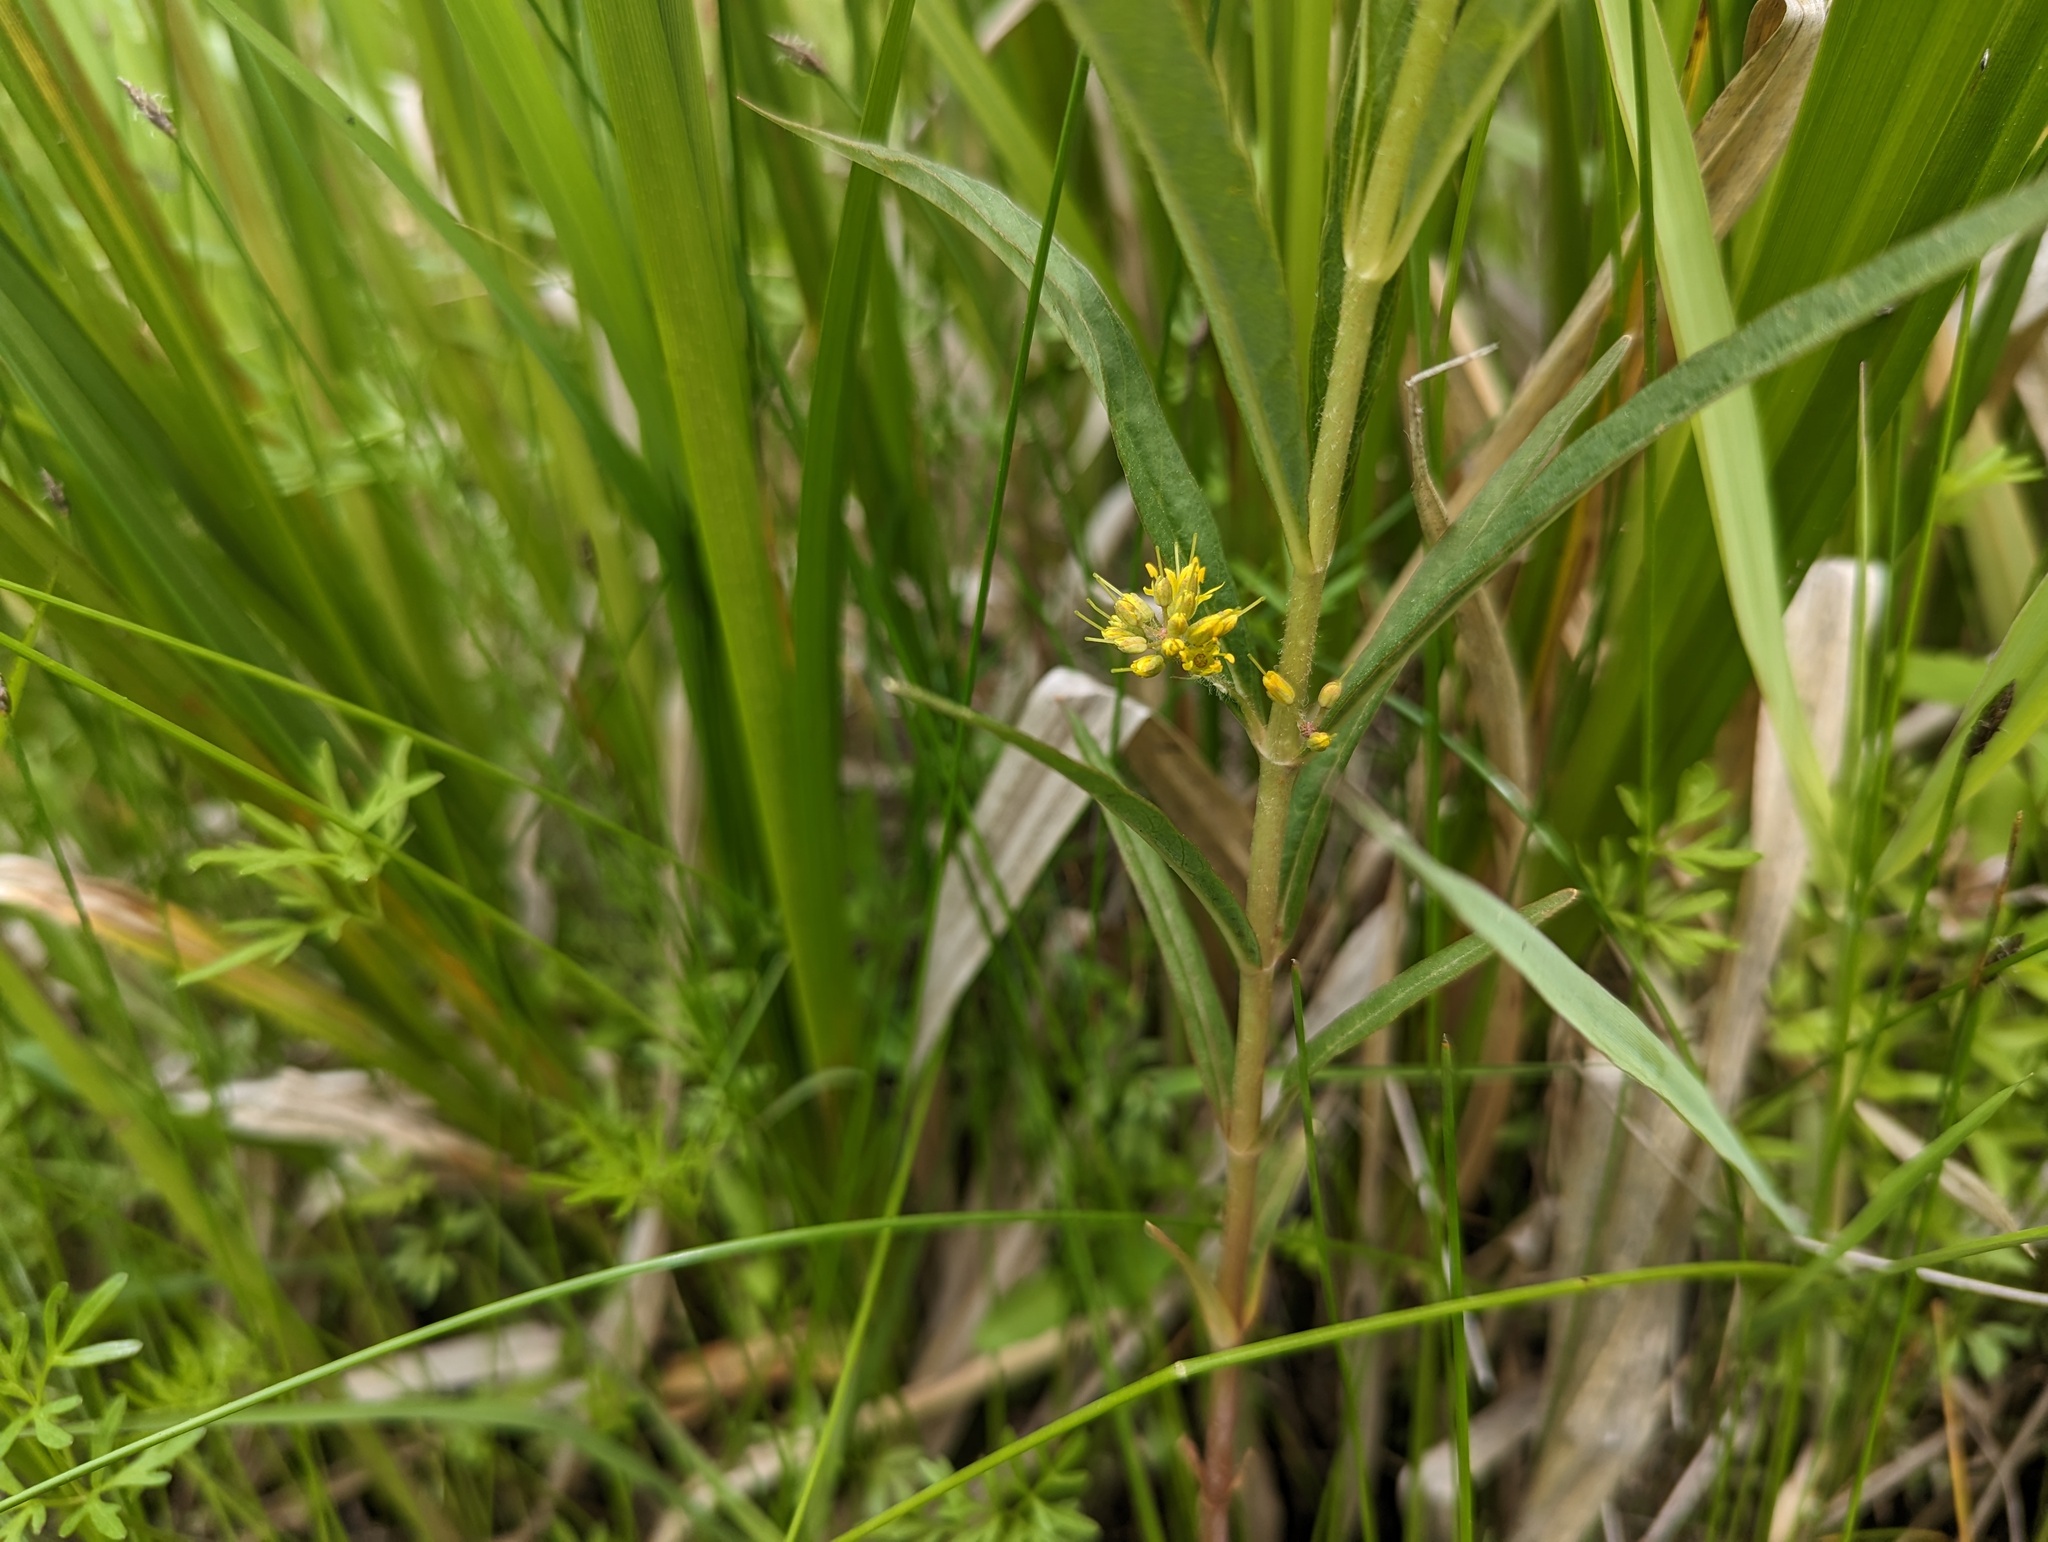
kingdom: Plantae
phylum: Tracheophyta
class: Magnoliopsida
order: Ericales
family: Primulaceae
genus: Lysimachia
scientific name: Lysimachia thyrsiflora
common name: Tufted loosestrife
